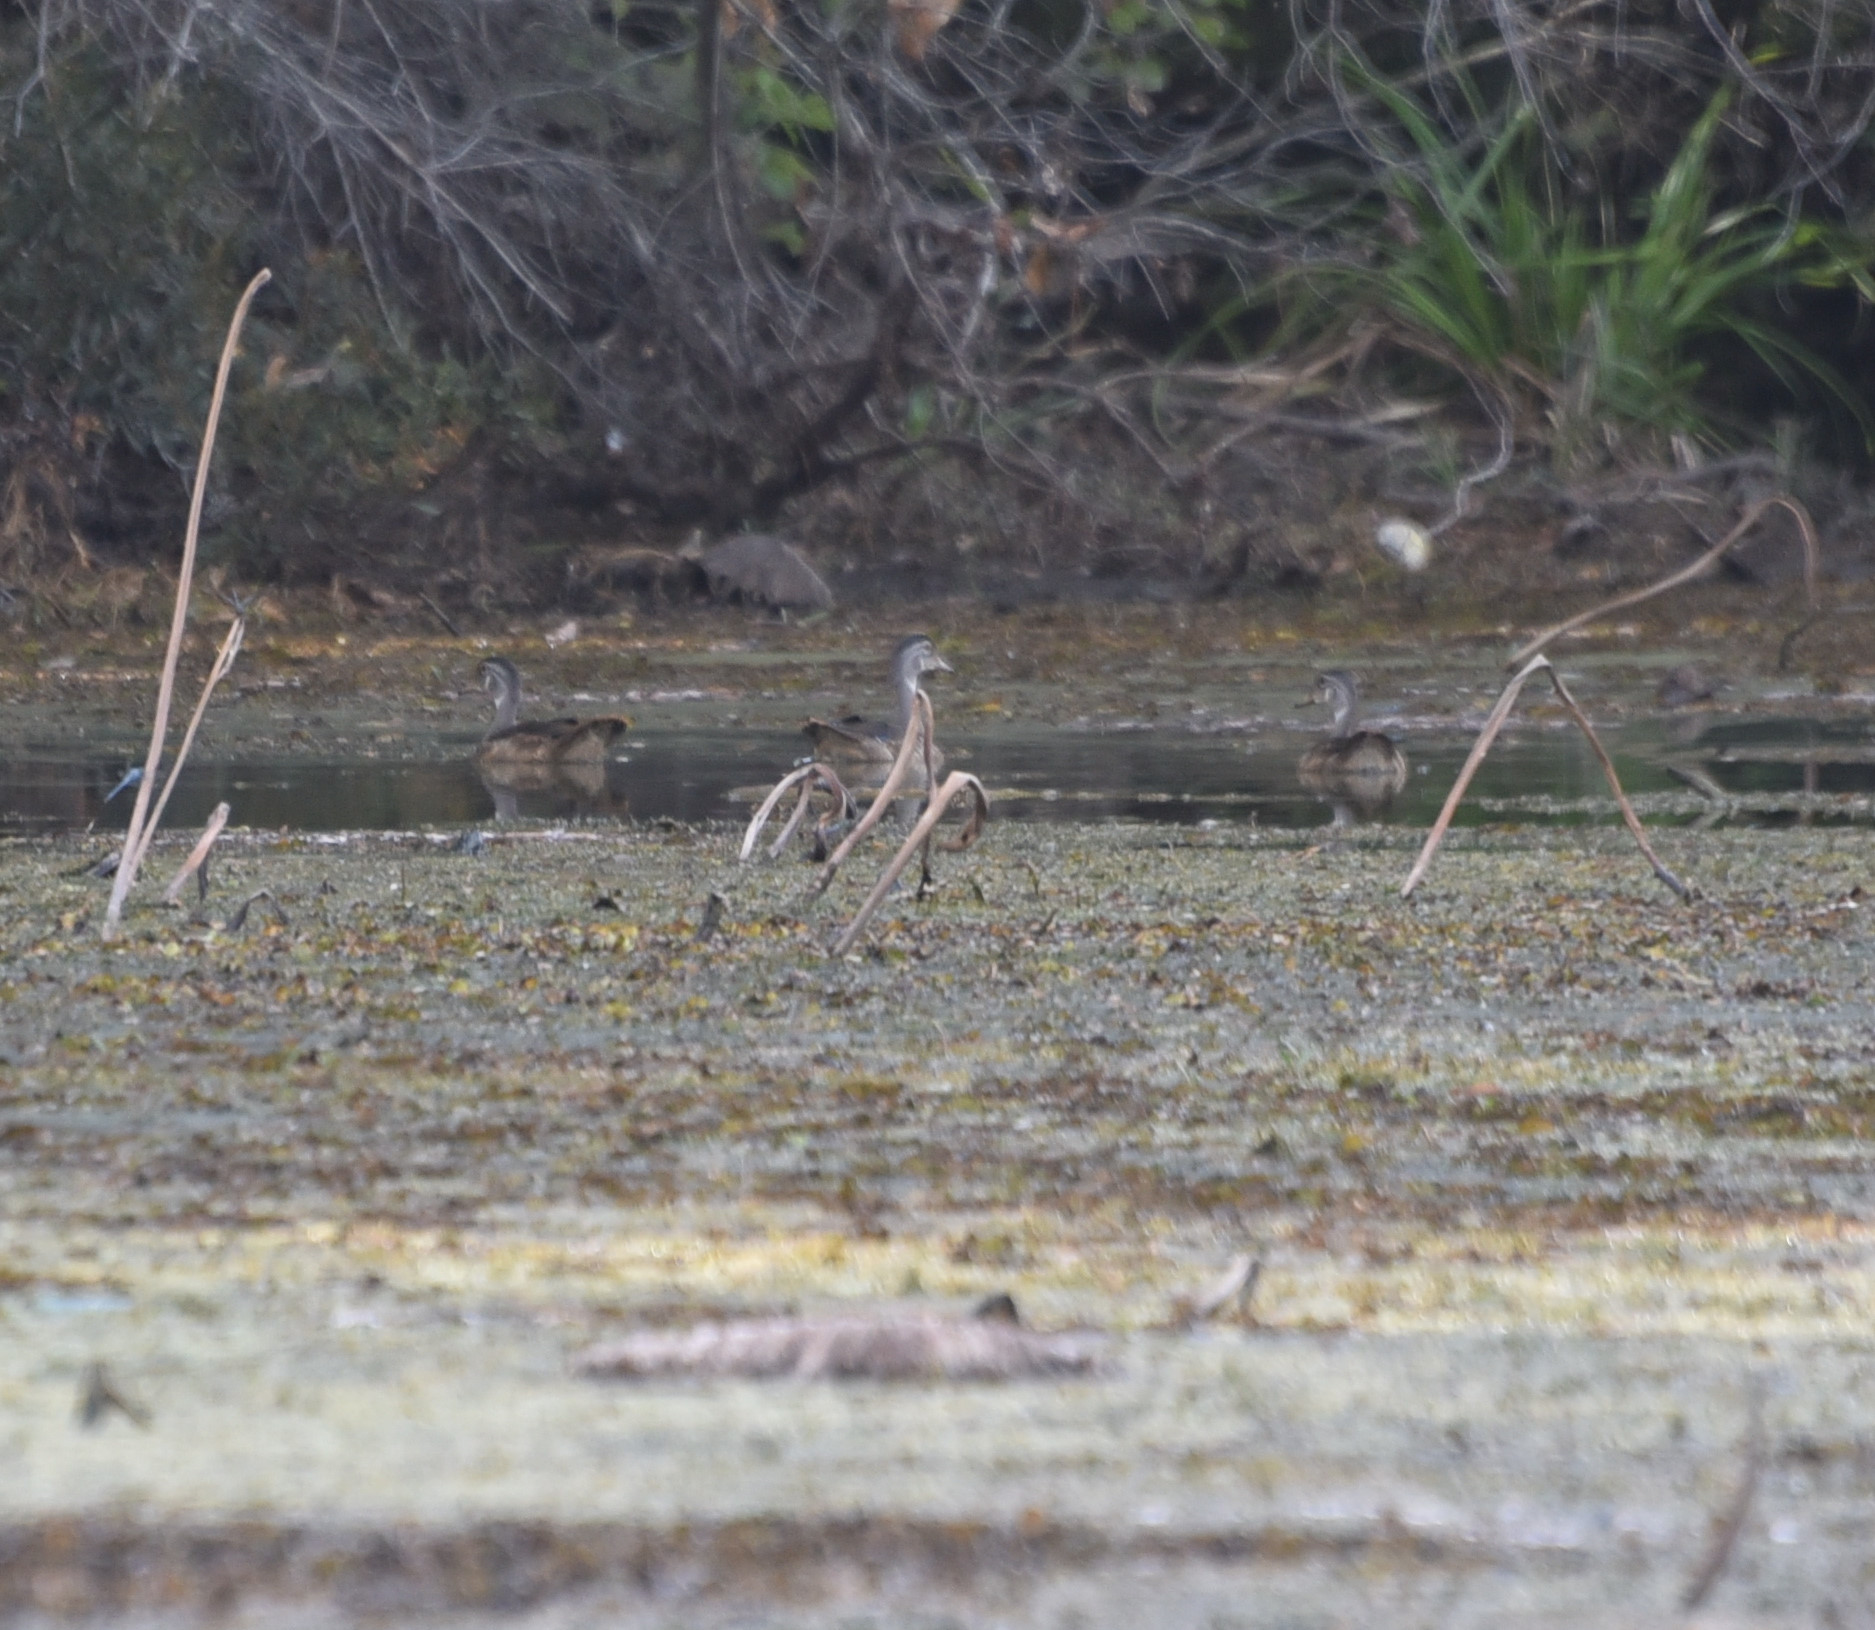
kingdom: Animalia
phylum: Chordata
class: Aves
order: Anseriformes
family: Anatidae
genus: Aix
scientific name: Aix sponsa
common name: Wood duck
